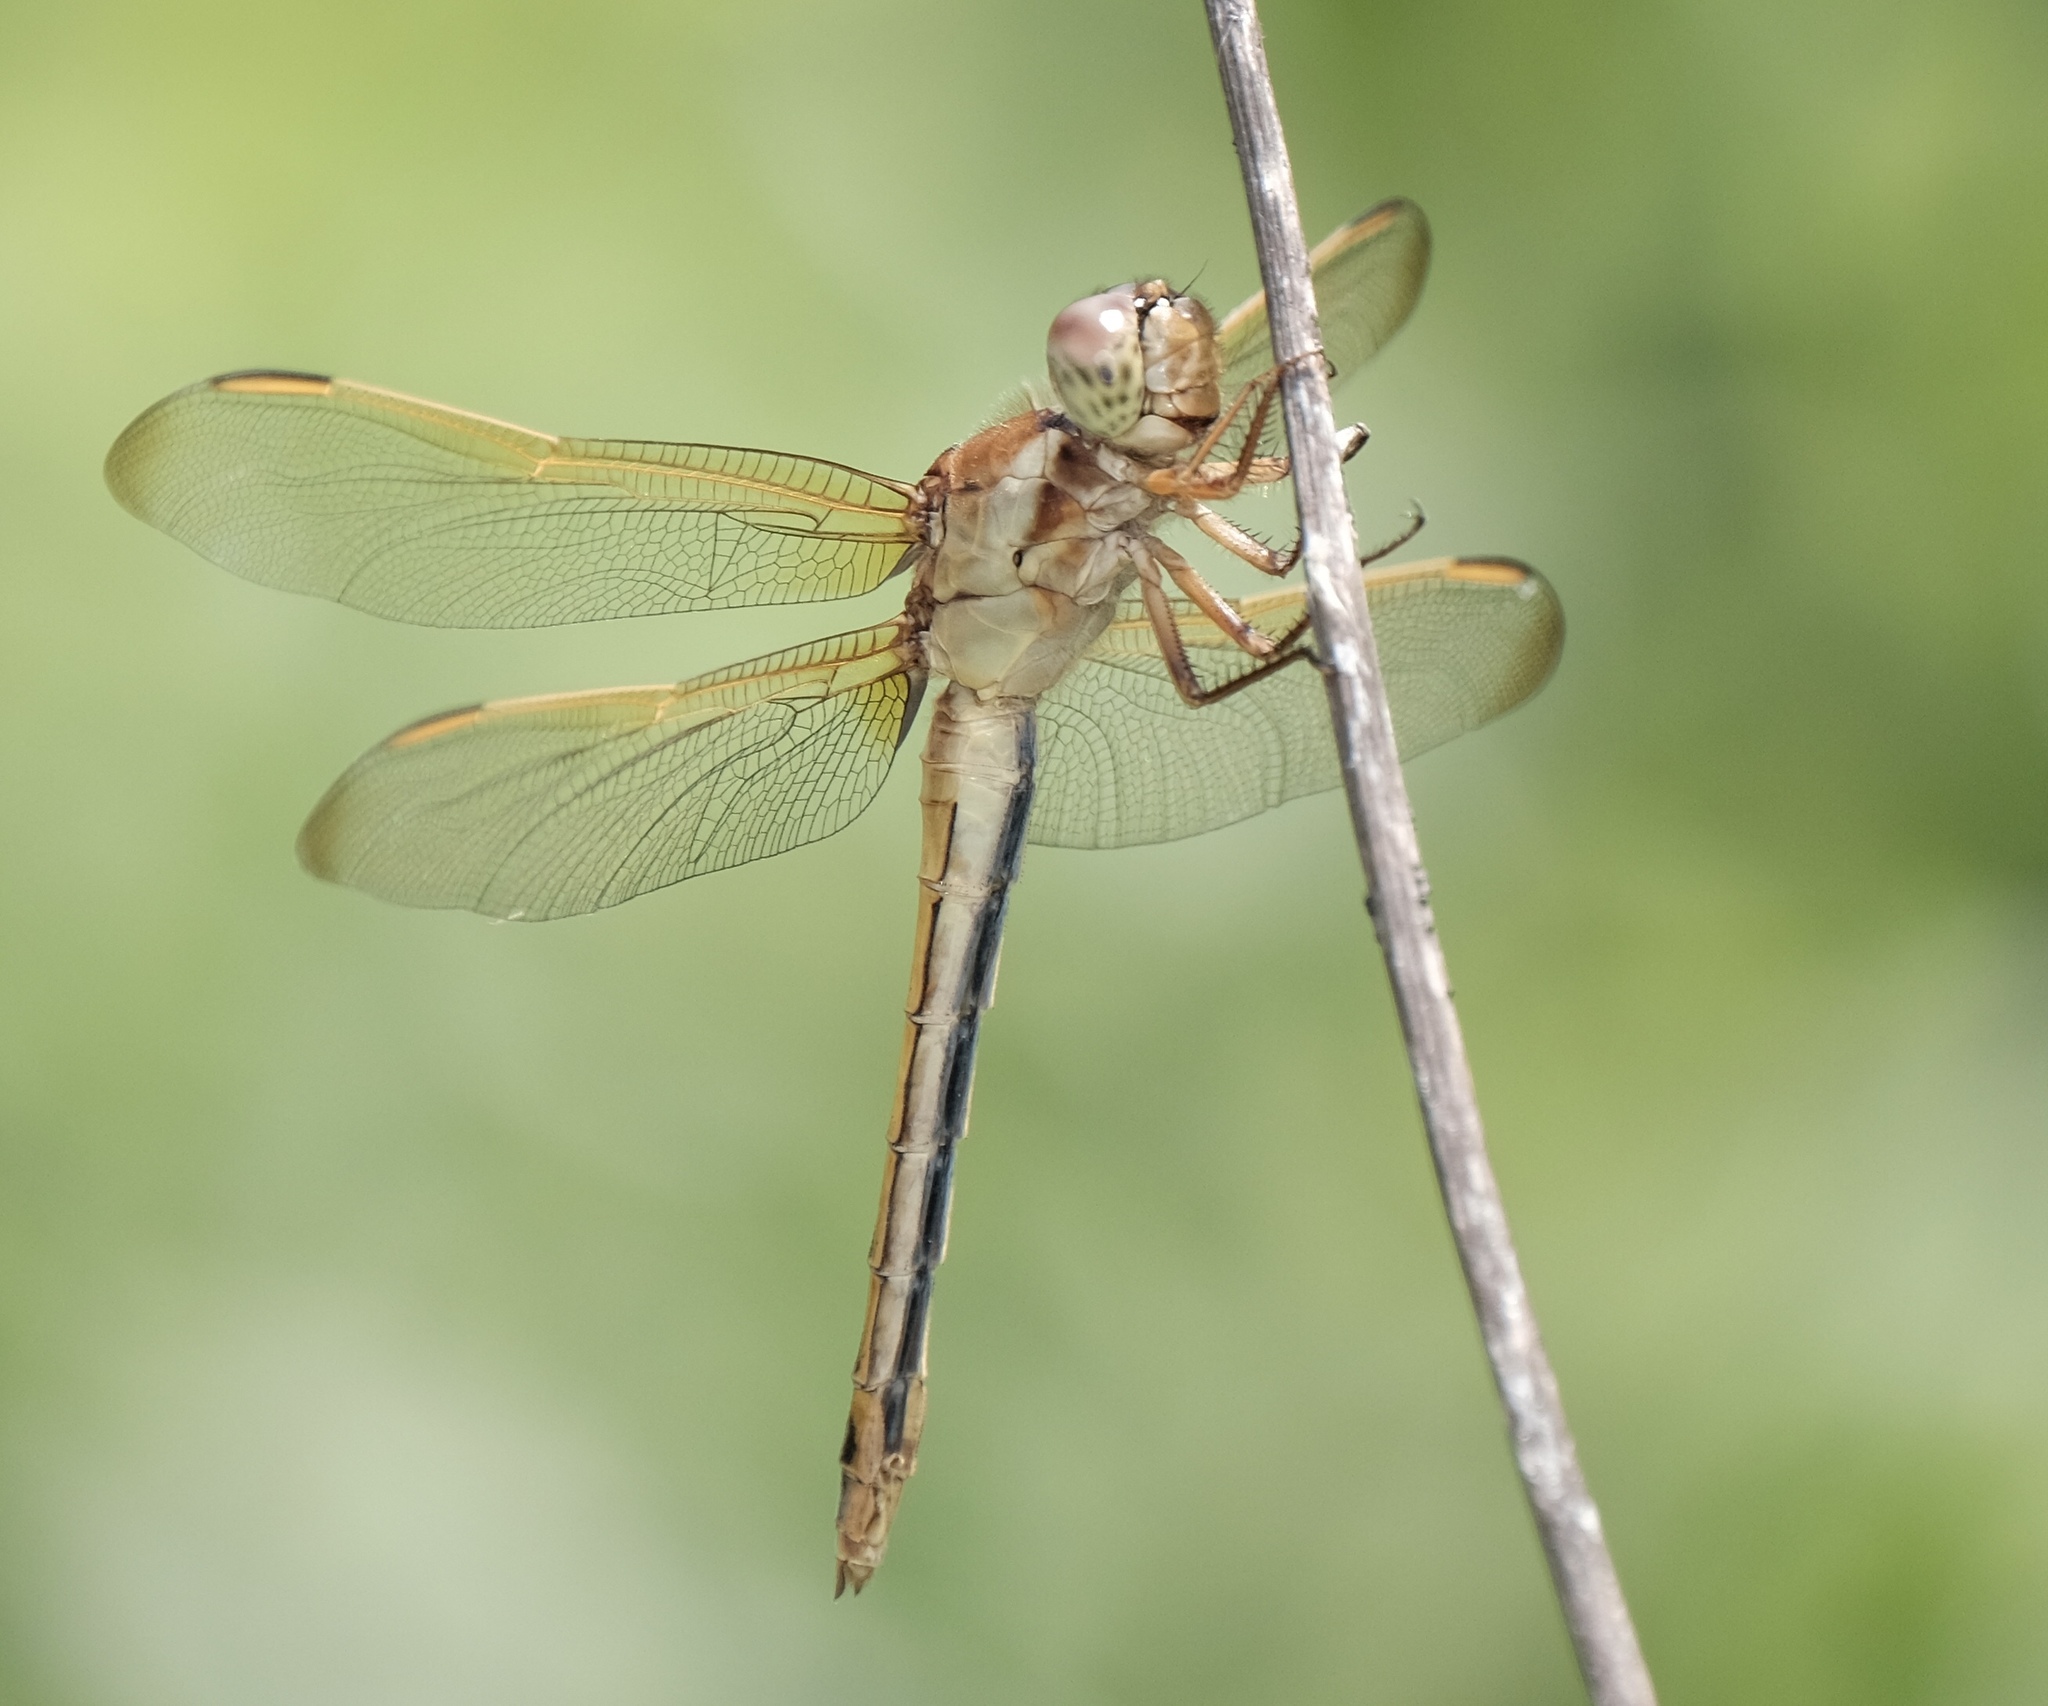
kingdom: Animalia
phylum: Arthropoda
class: Insecta
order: Odonata
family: Libellulidae
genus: Libellula
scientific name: Libellula needhami
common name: Needham's skimmer
